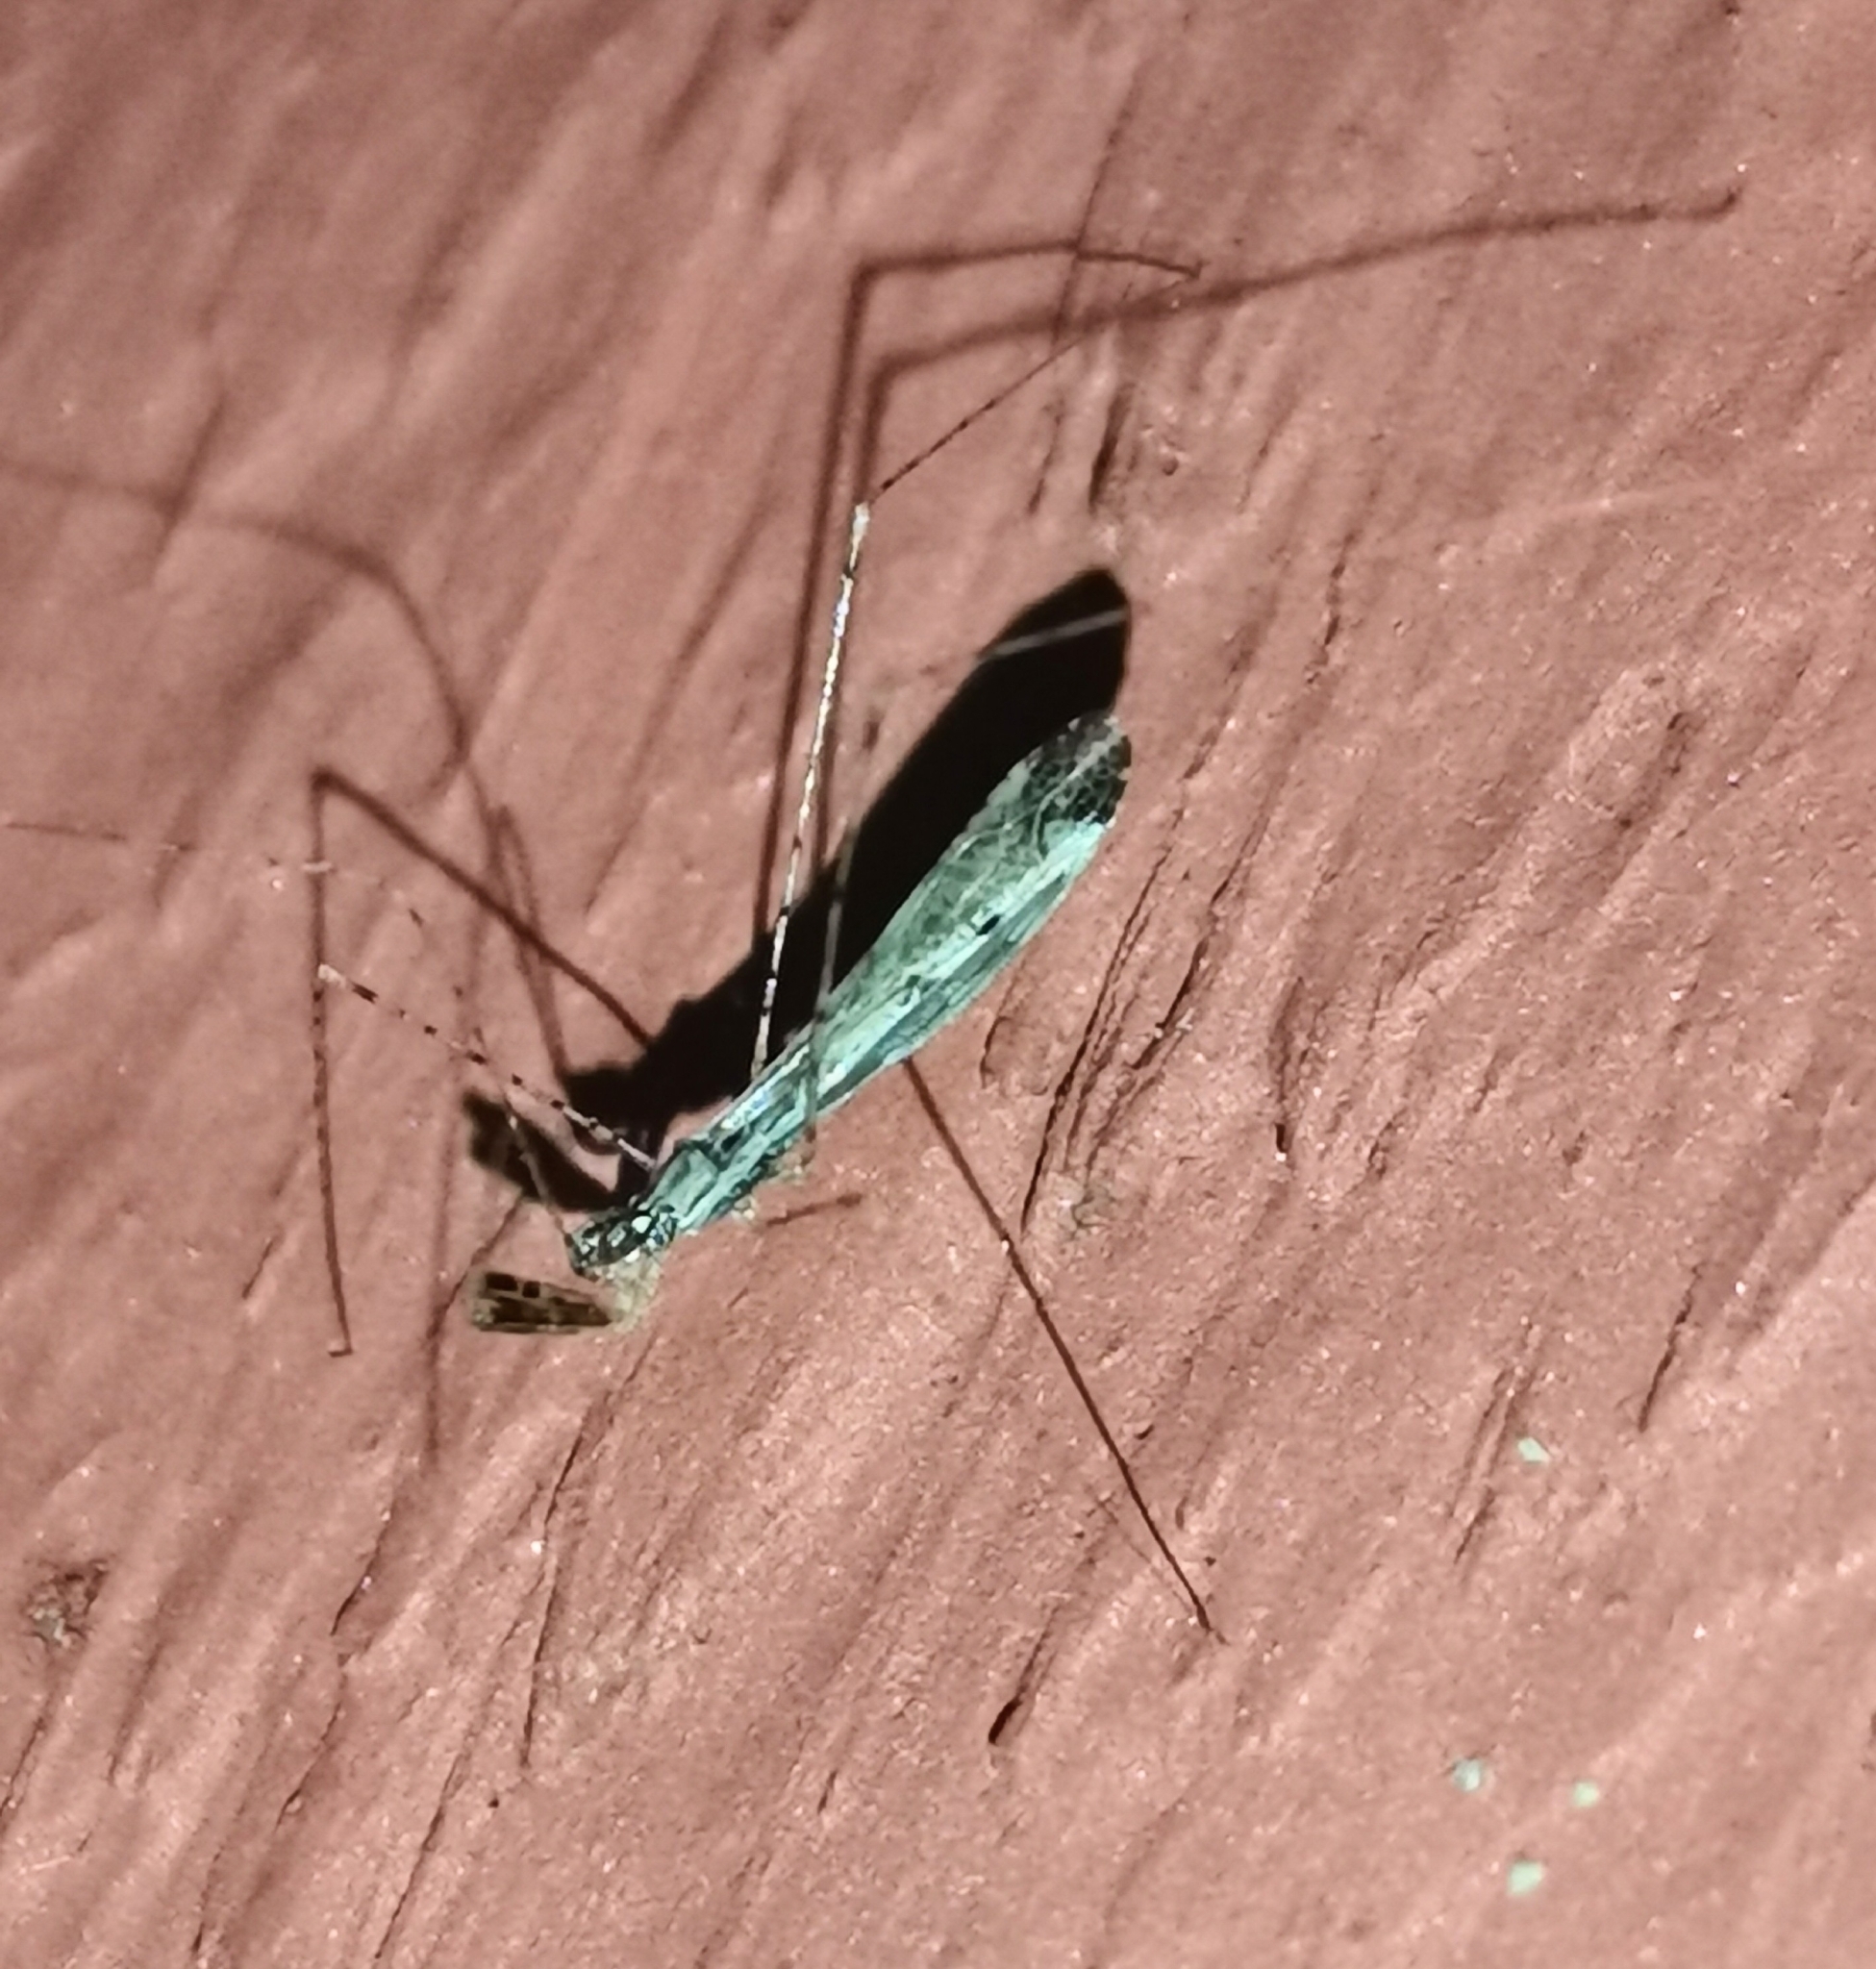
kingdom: Animalia
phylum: Arthropoda
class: Insecta
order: Hemiptera
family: Reduviidae
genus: Empicoris
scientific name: Empicoris vagabundus
